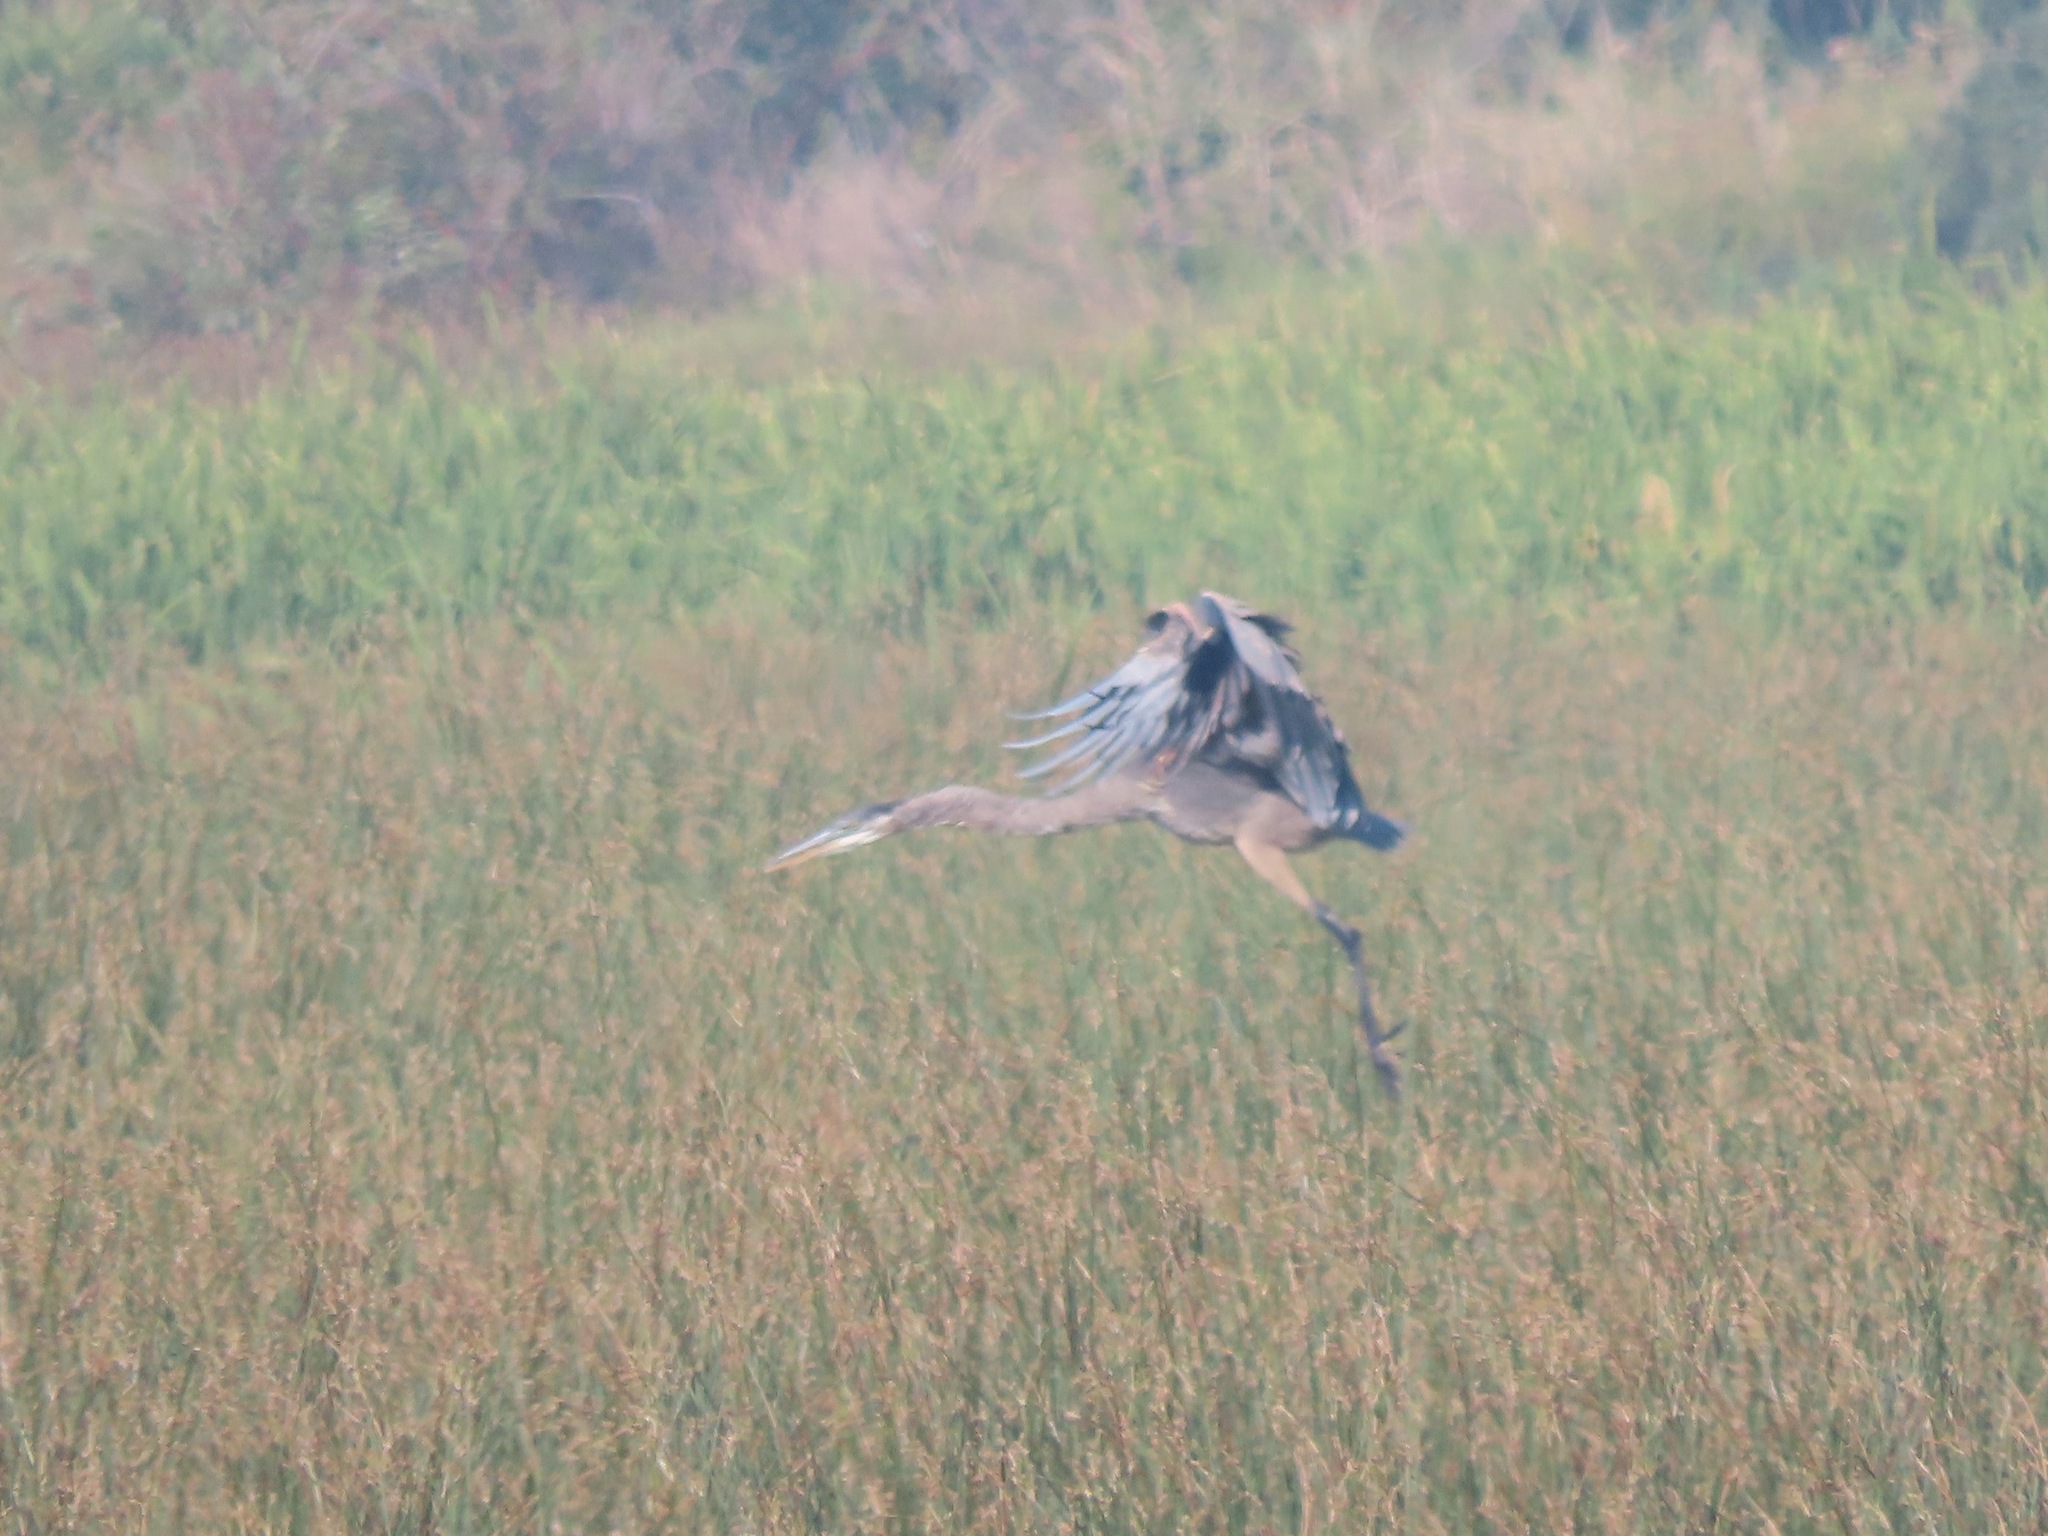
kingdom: Animalia
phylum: Chordata
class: Aves
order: Pelecaniformes
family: Ardeidae
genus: Ardea
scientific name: Ardea herodias
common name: Great blue heron
